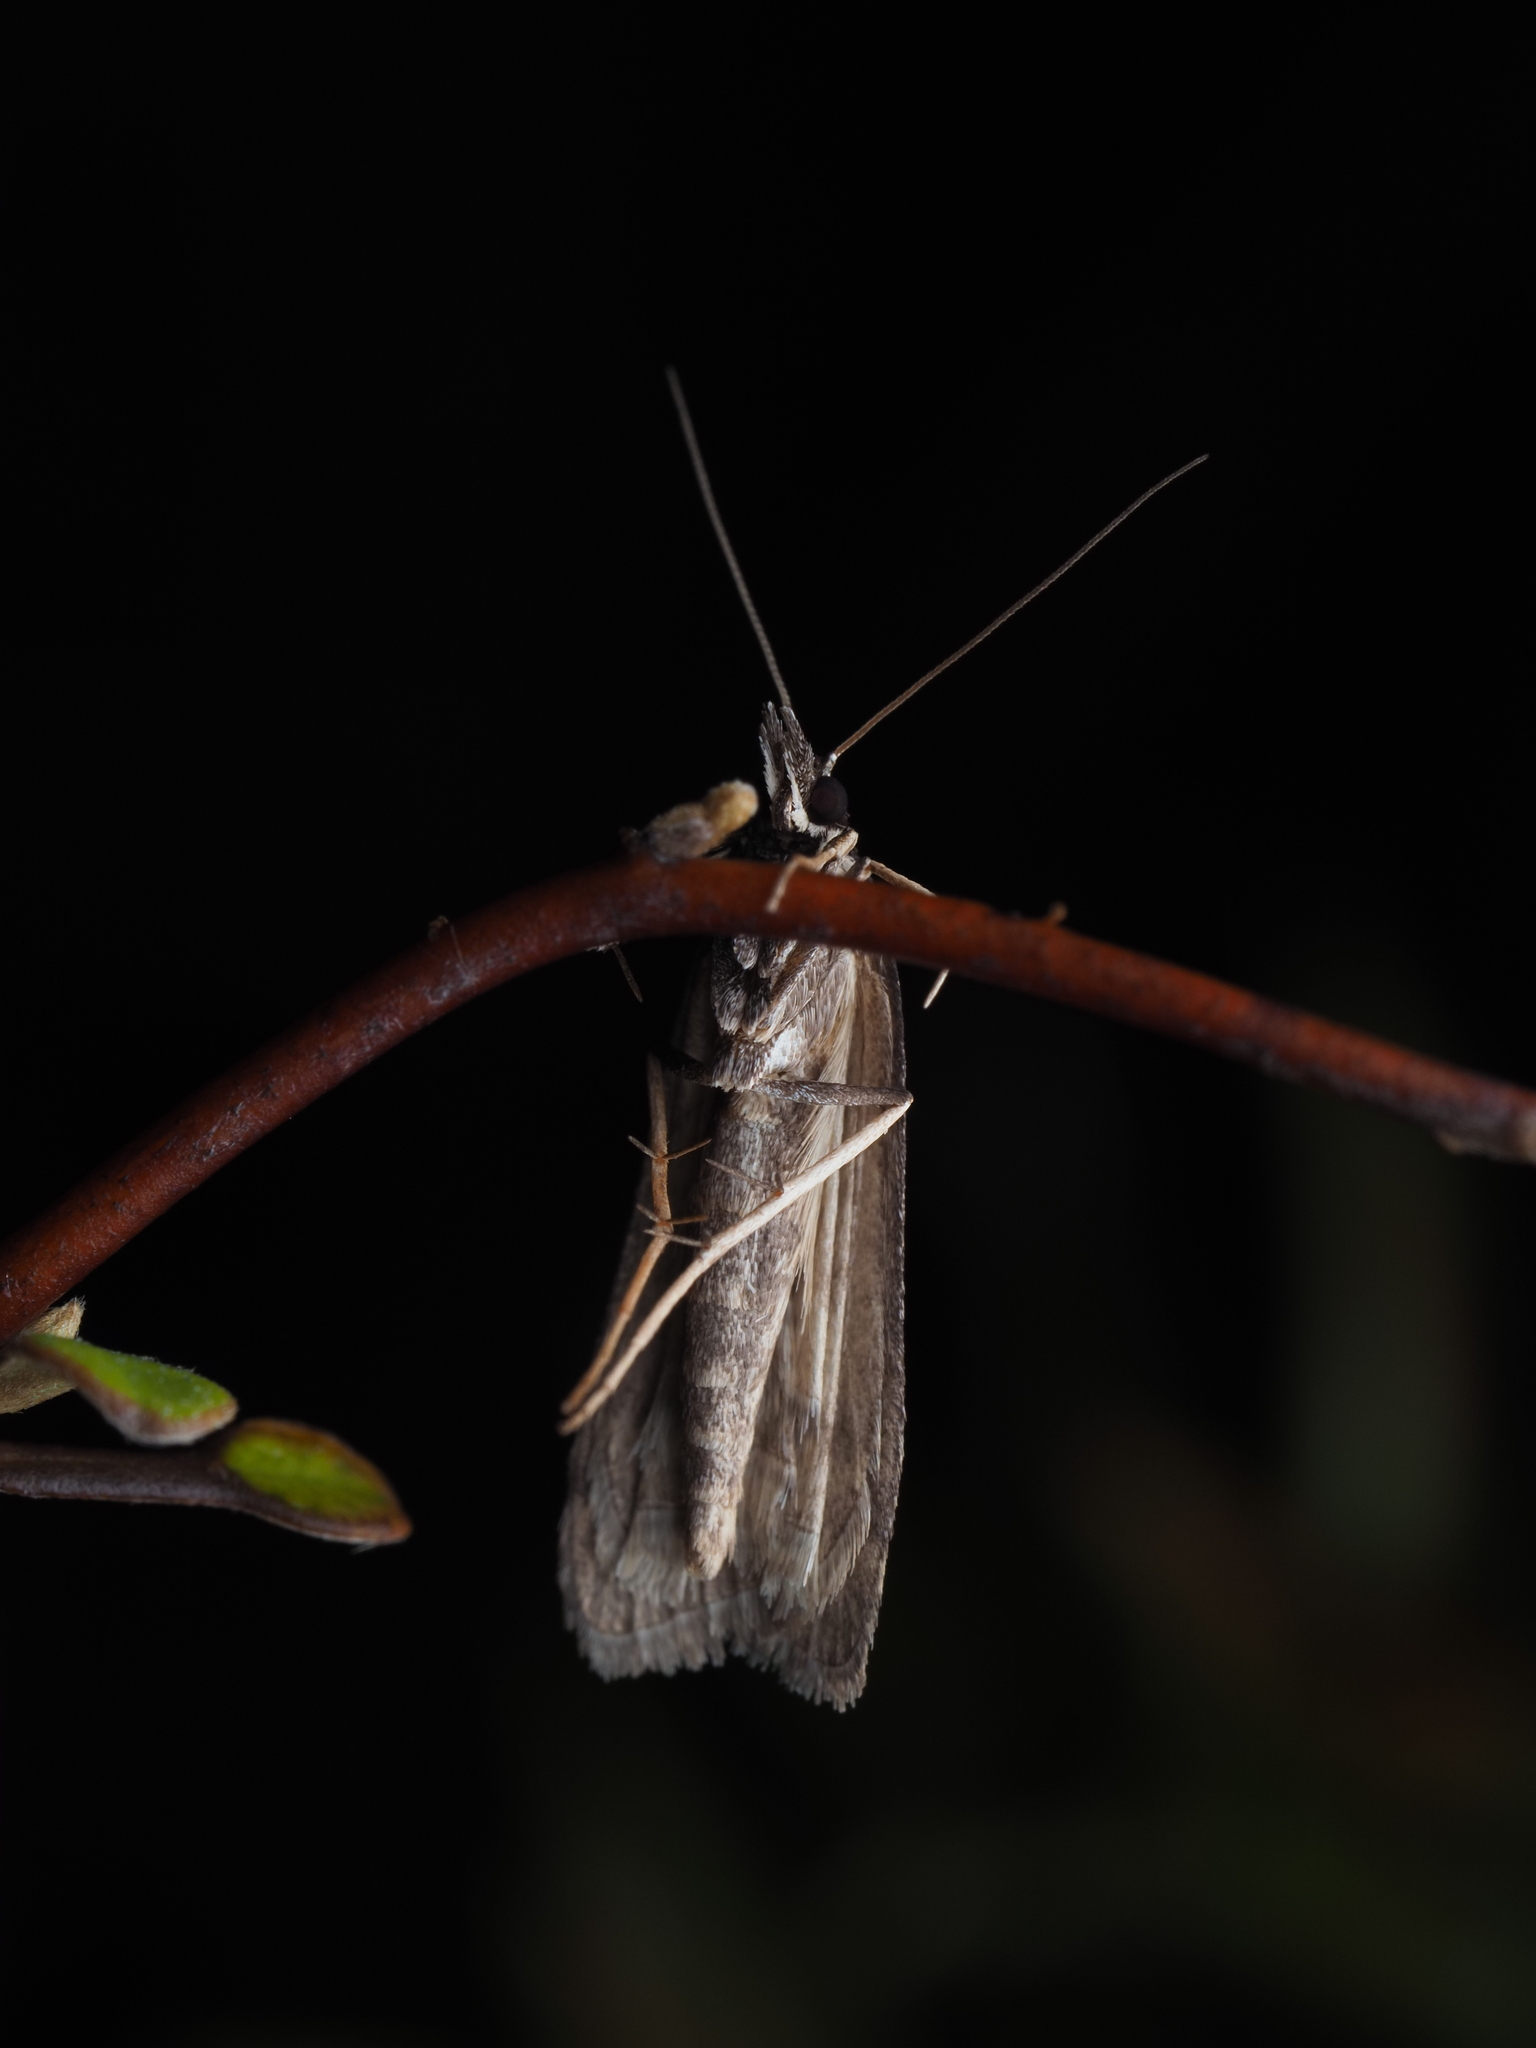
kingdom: Animalia
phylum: Arthropoda
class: Insecta
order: Lepidoptera
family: Crambidae
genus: Eudonia
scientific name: Eudonia oculata
